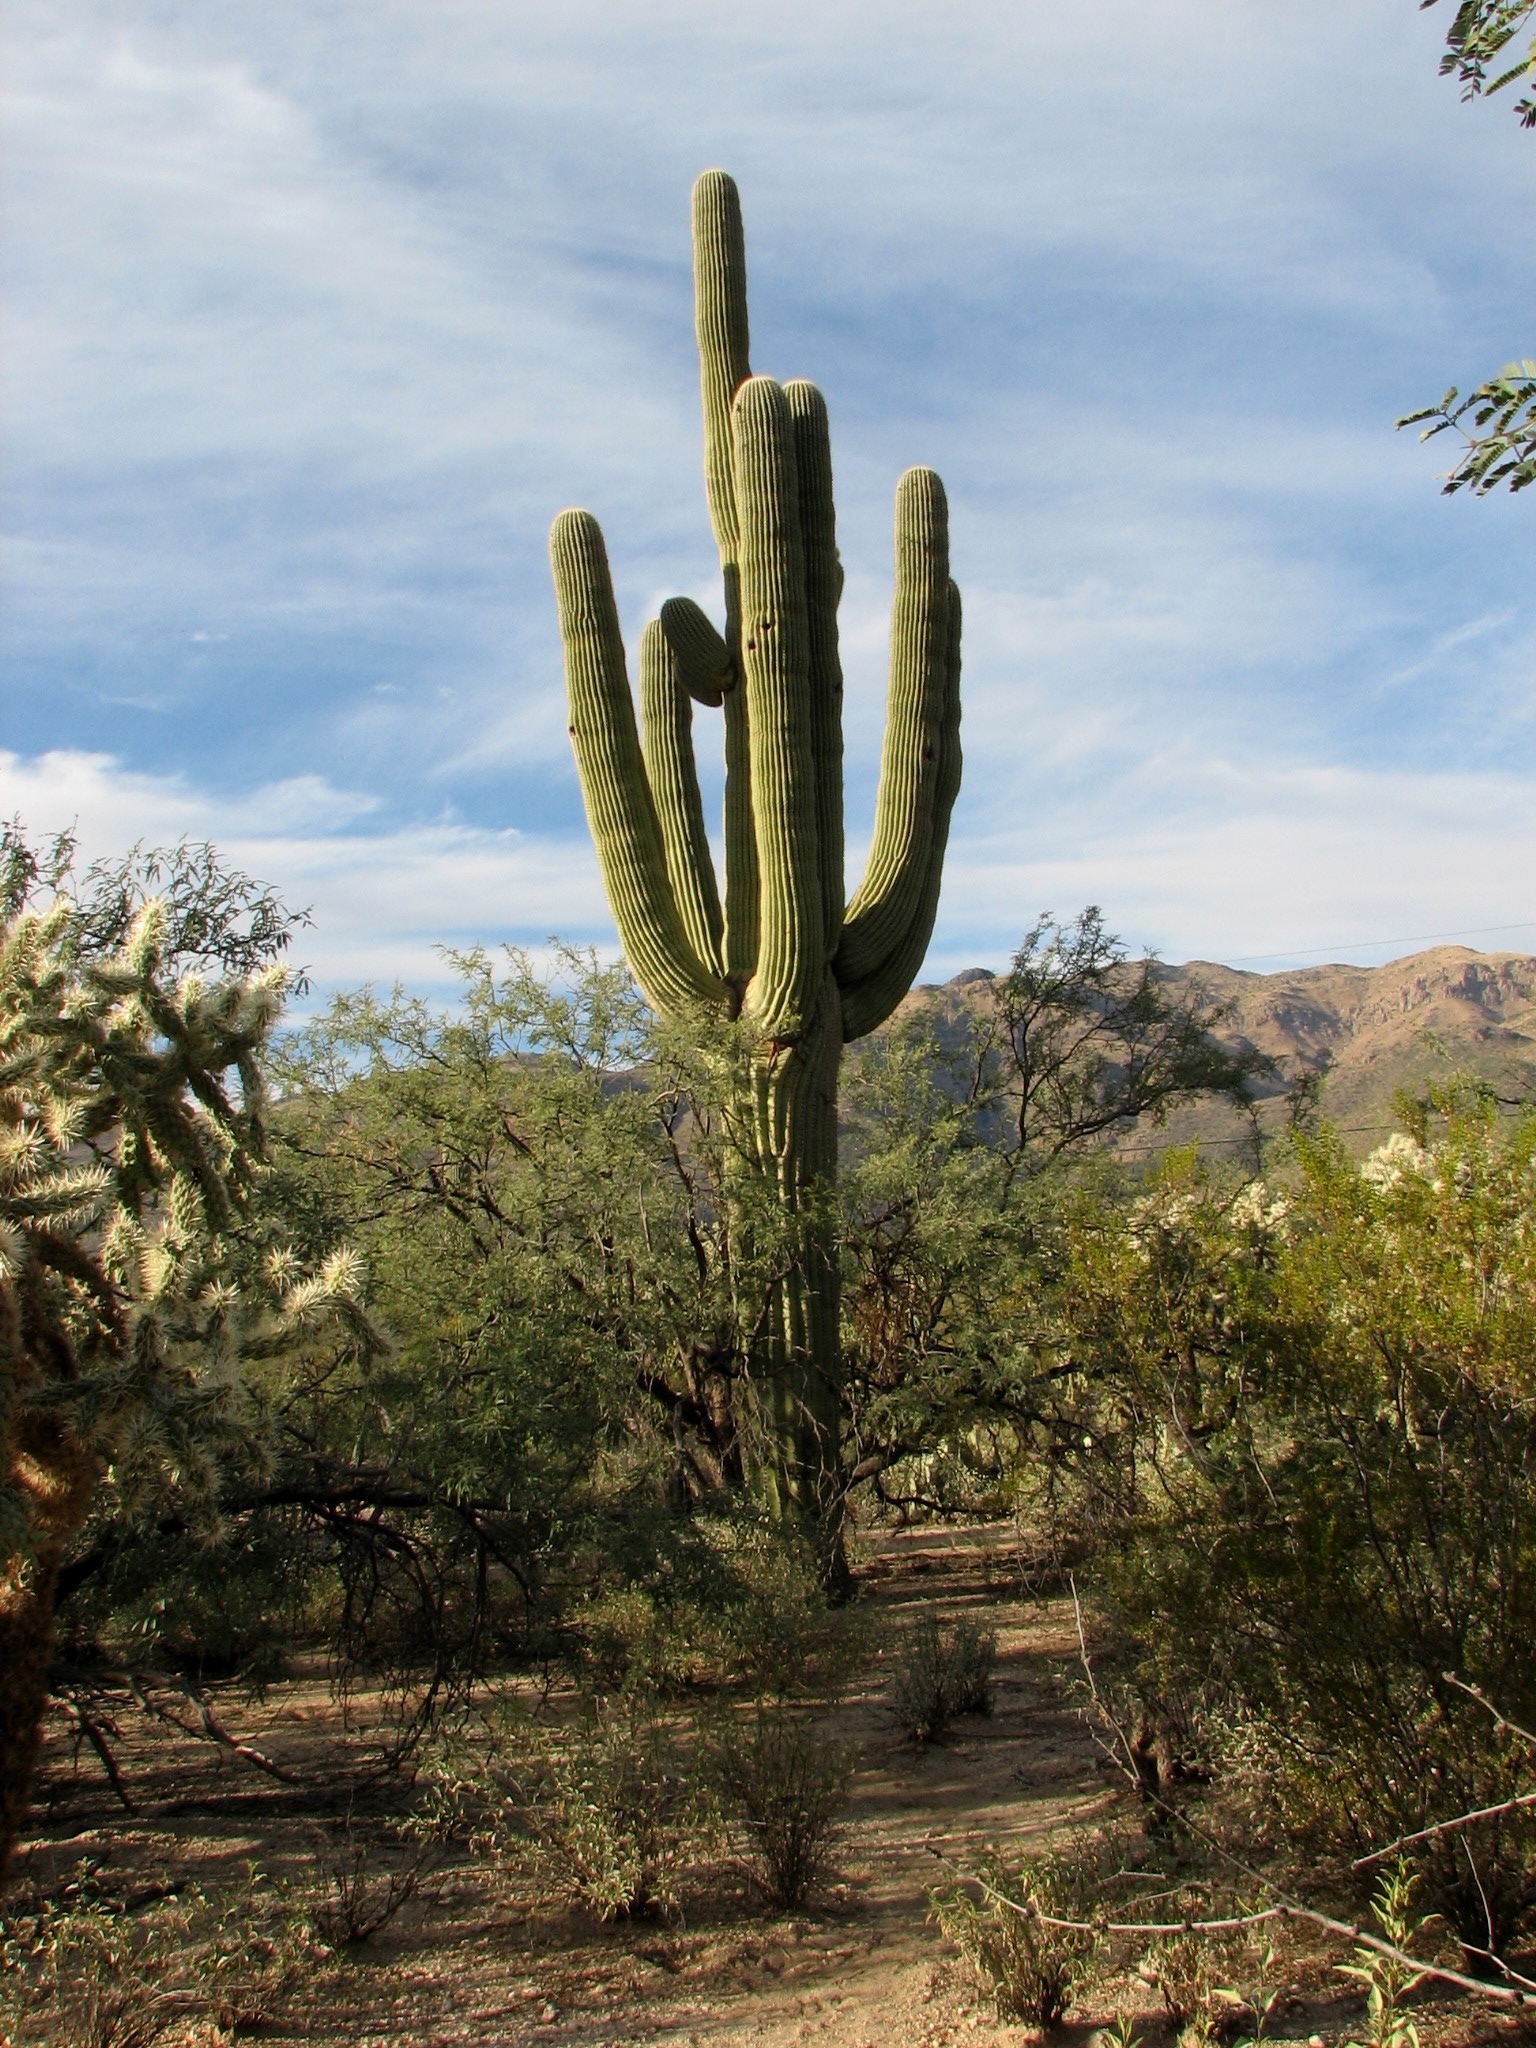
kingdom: Plantae
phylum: Tracheophyta
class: Magnoliopsida
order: Caryophyllales
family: Cactaceae
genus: Carnegiea
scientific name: Carnegiea gigantea
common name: Saguaro
